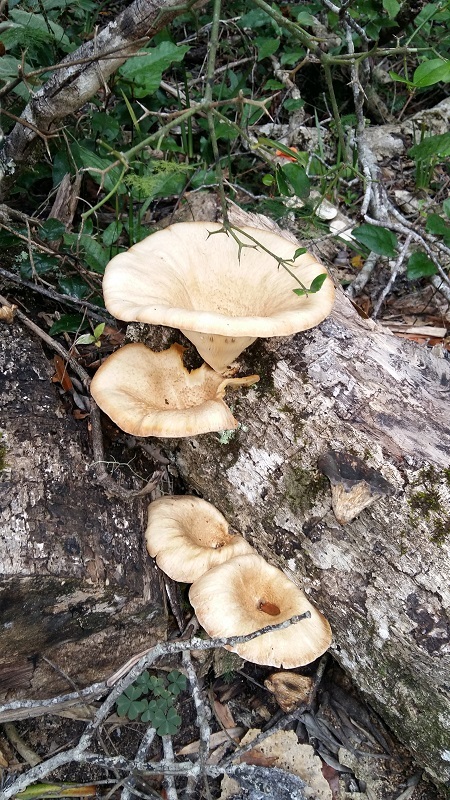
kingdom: Fungi
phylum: Basidiomycota
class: Agaricomycetes
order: Polyporales
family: Polyporaceae
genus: Lentinus
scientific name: Lentinus sajor-caju
